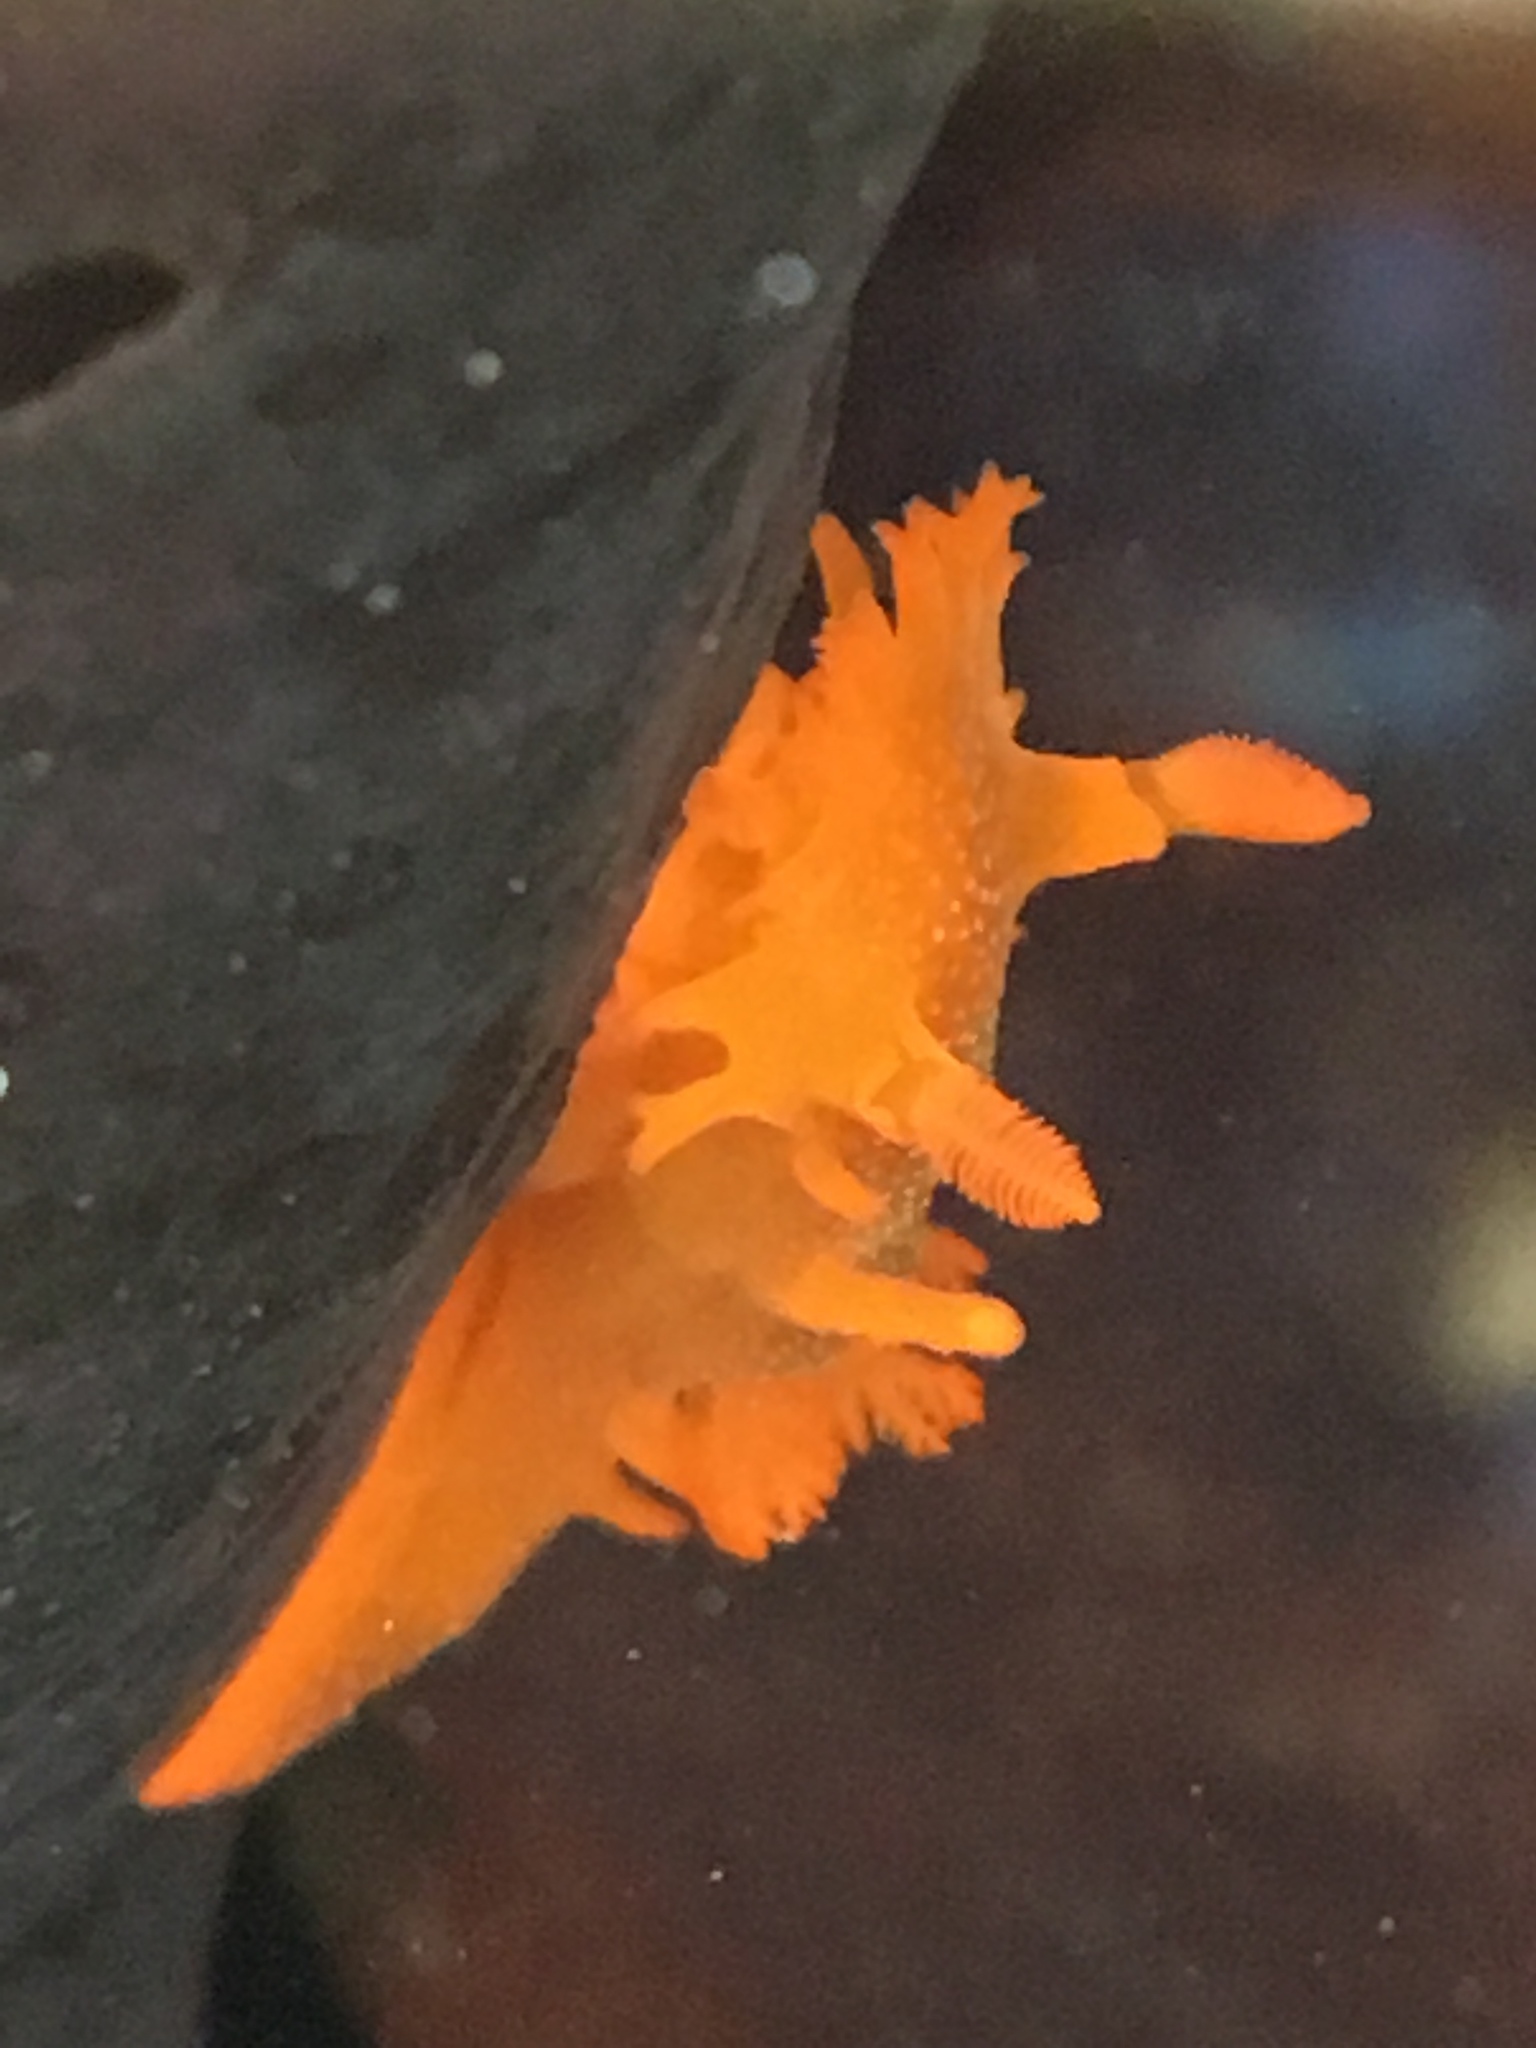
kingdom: Animalia
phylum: Mollusca
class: Gastropoda
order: Nudibranchia
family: Polyceridae
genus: Triopha
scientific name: Triopha maculata
